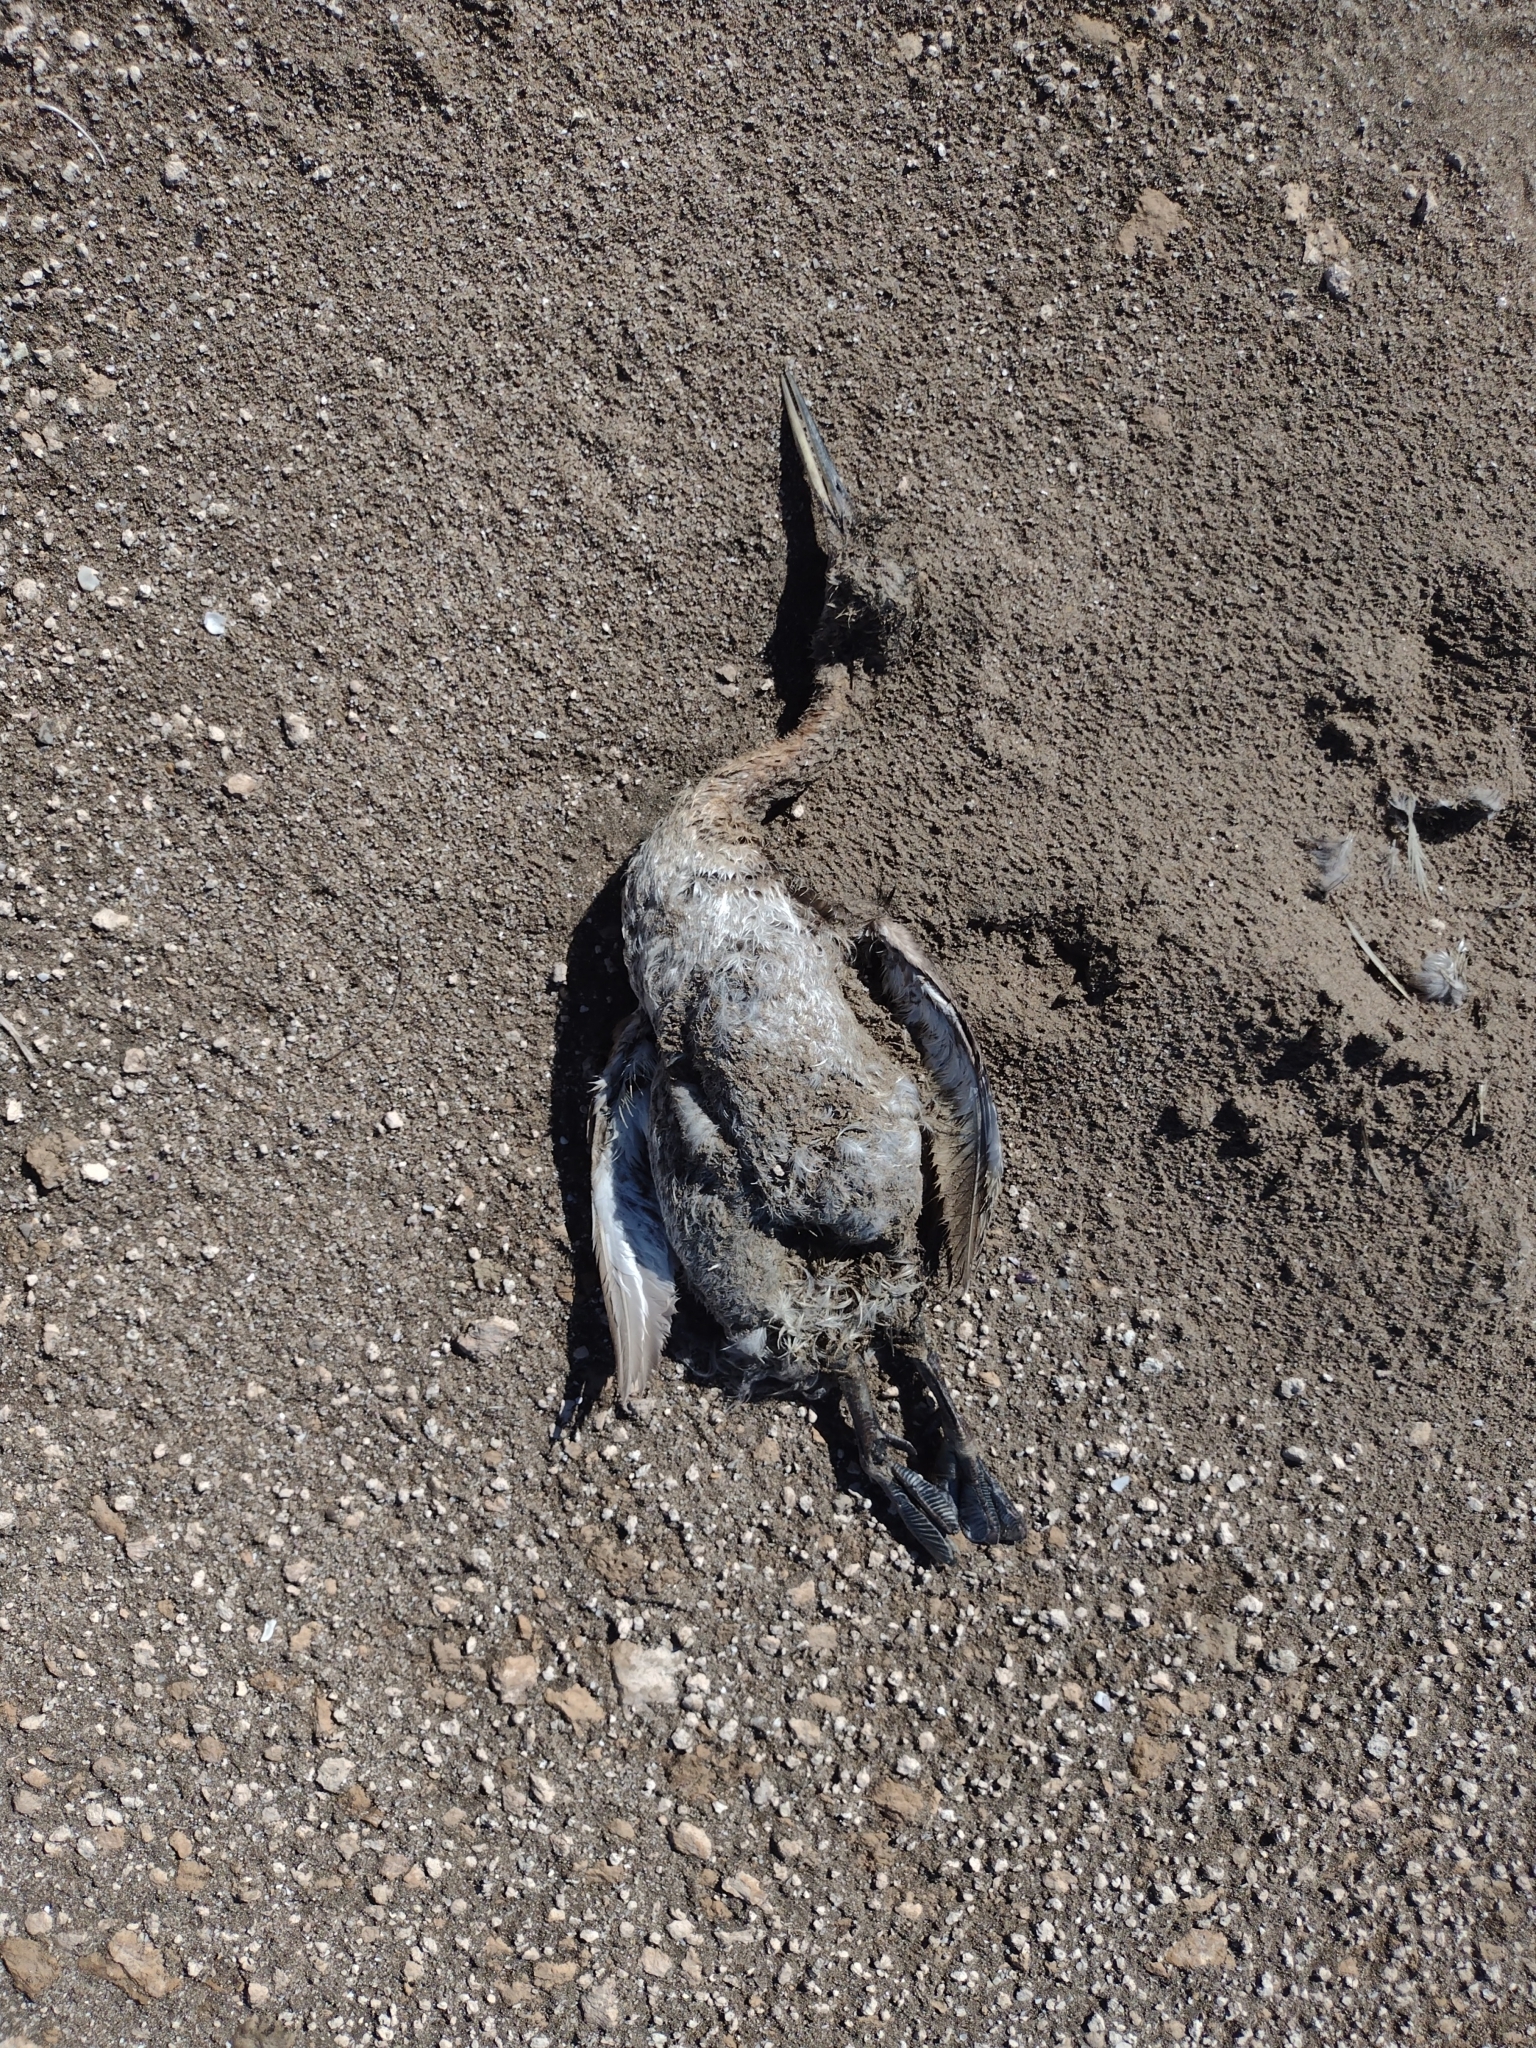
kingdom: Animalia
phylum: Chordata
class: Aves
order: Podicipediformes
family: Podicipedidae
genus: Podiceps
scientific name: Podiceps major
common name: Great grebe
